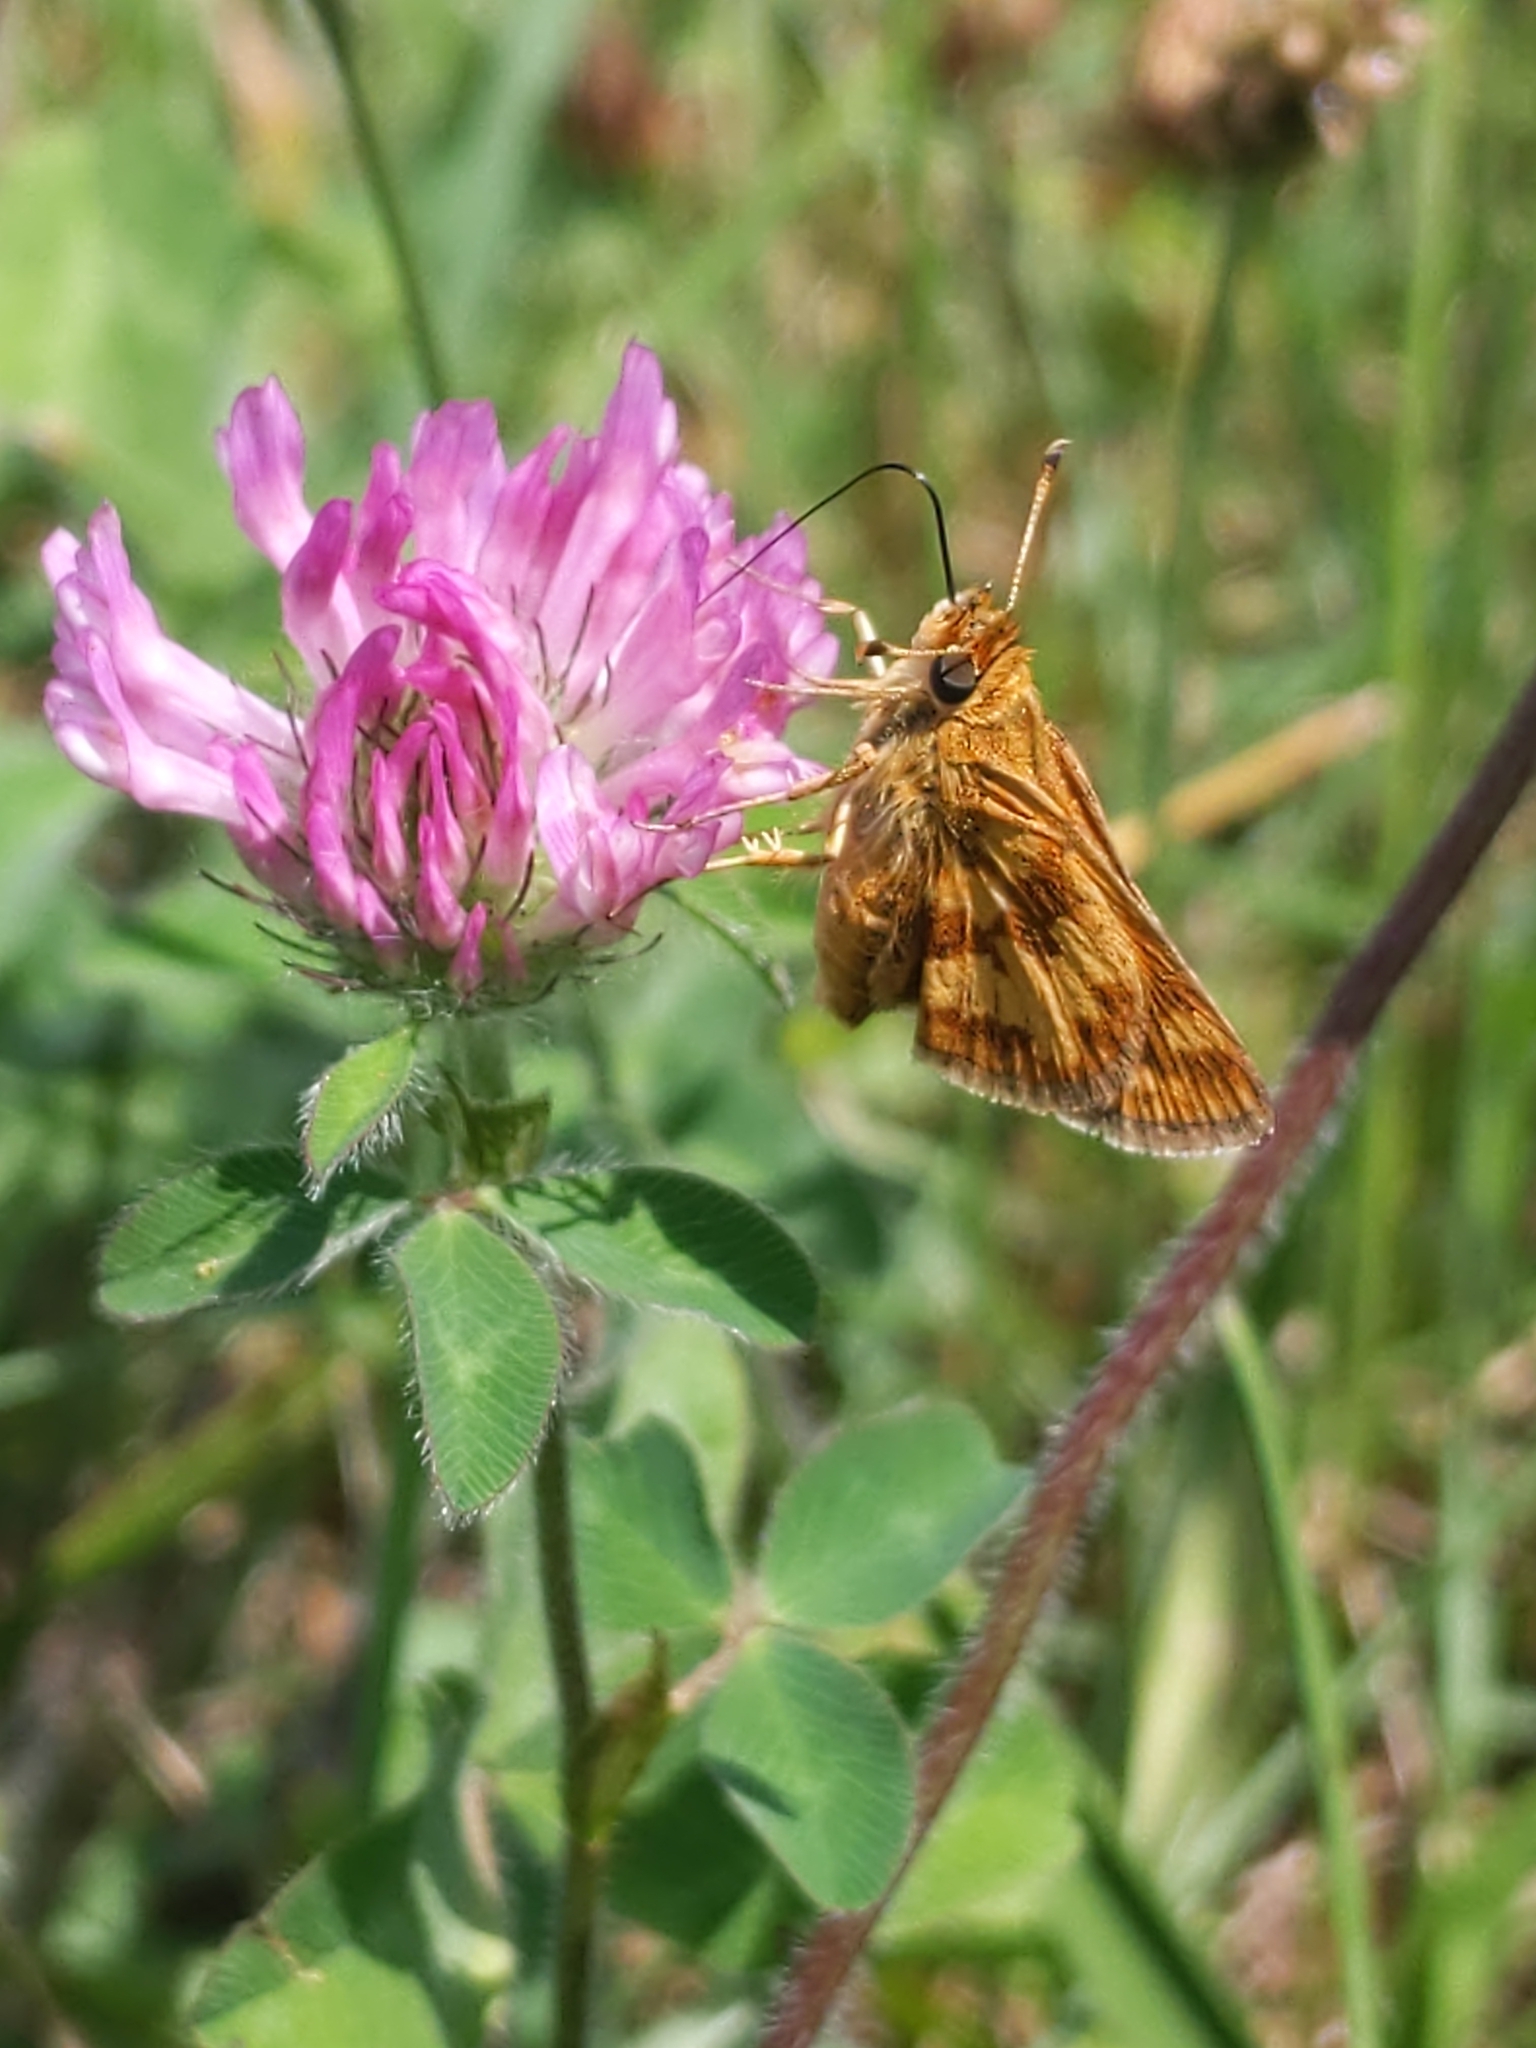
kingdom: Animalia
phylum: Arthropoda
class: Insecta
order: Lepidoptera
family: Hesperiidae
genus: Polites
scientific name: Polites coras
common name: Peck's skipper
